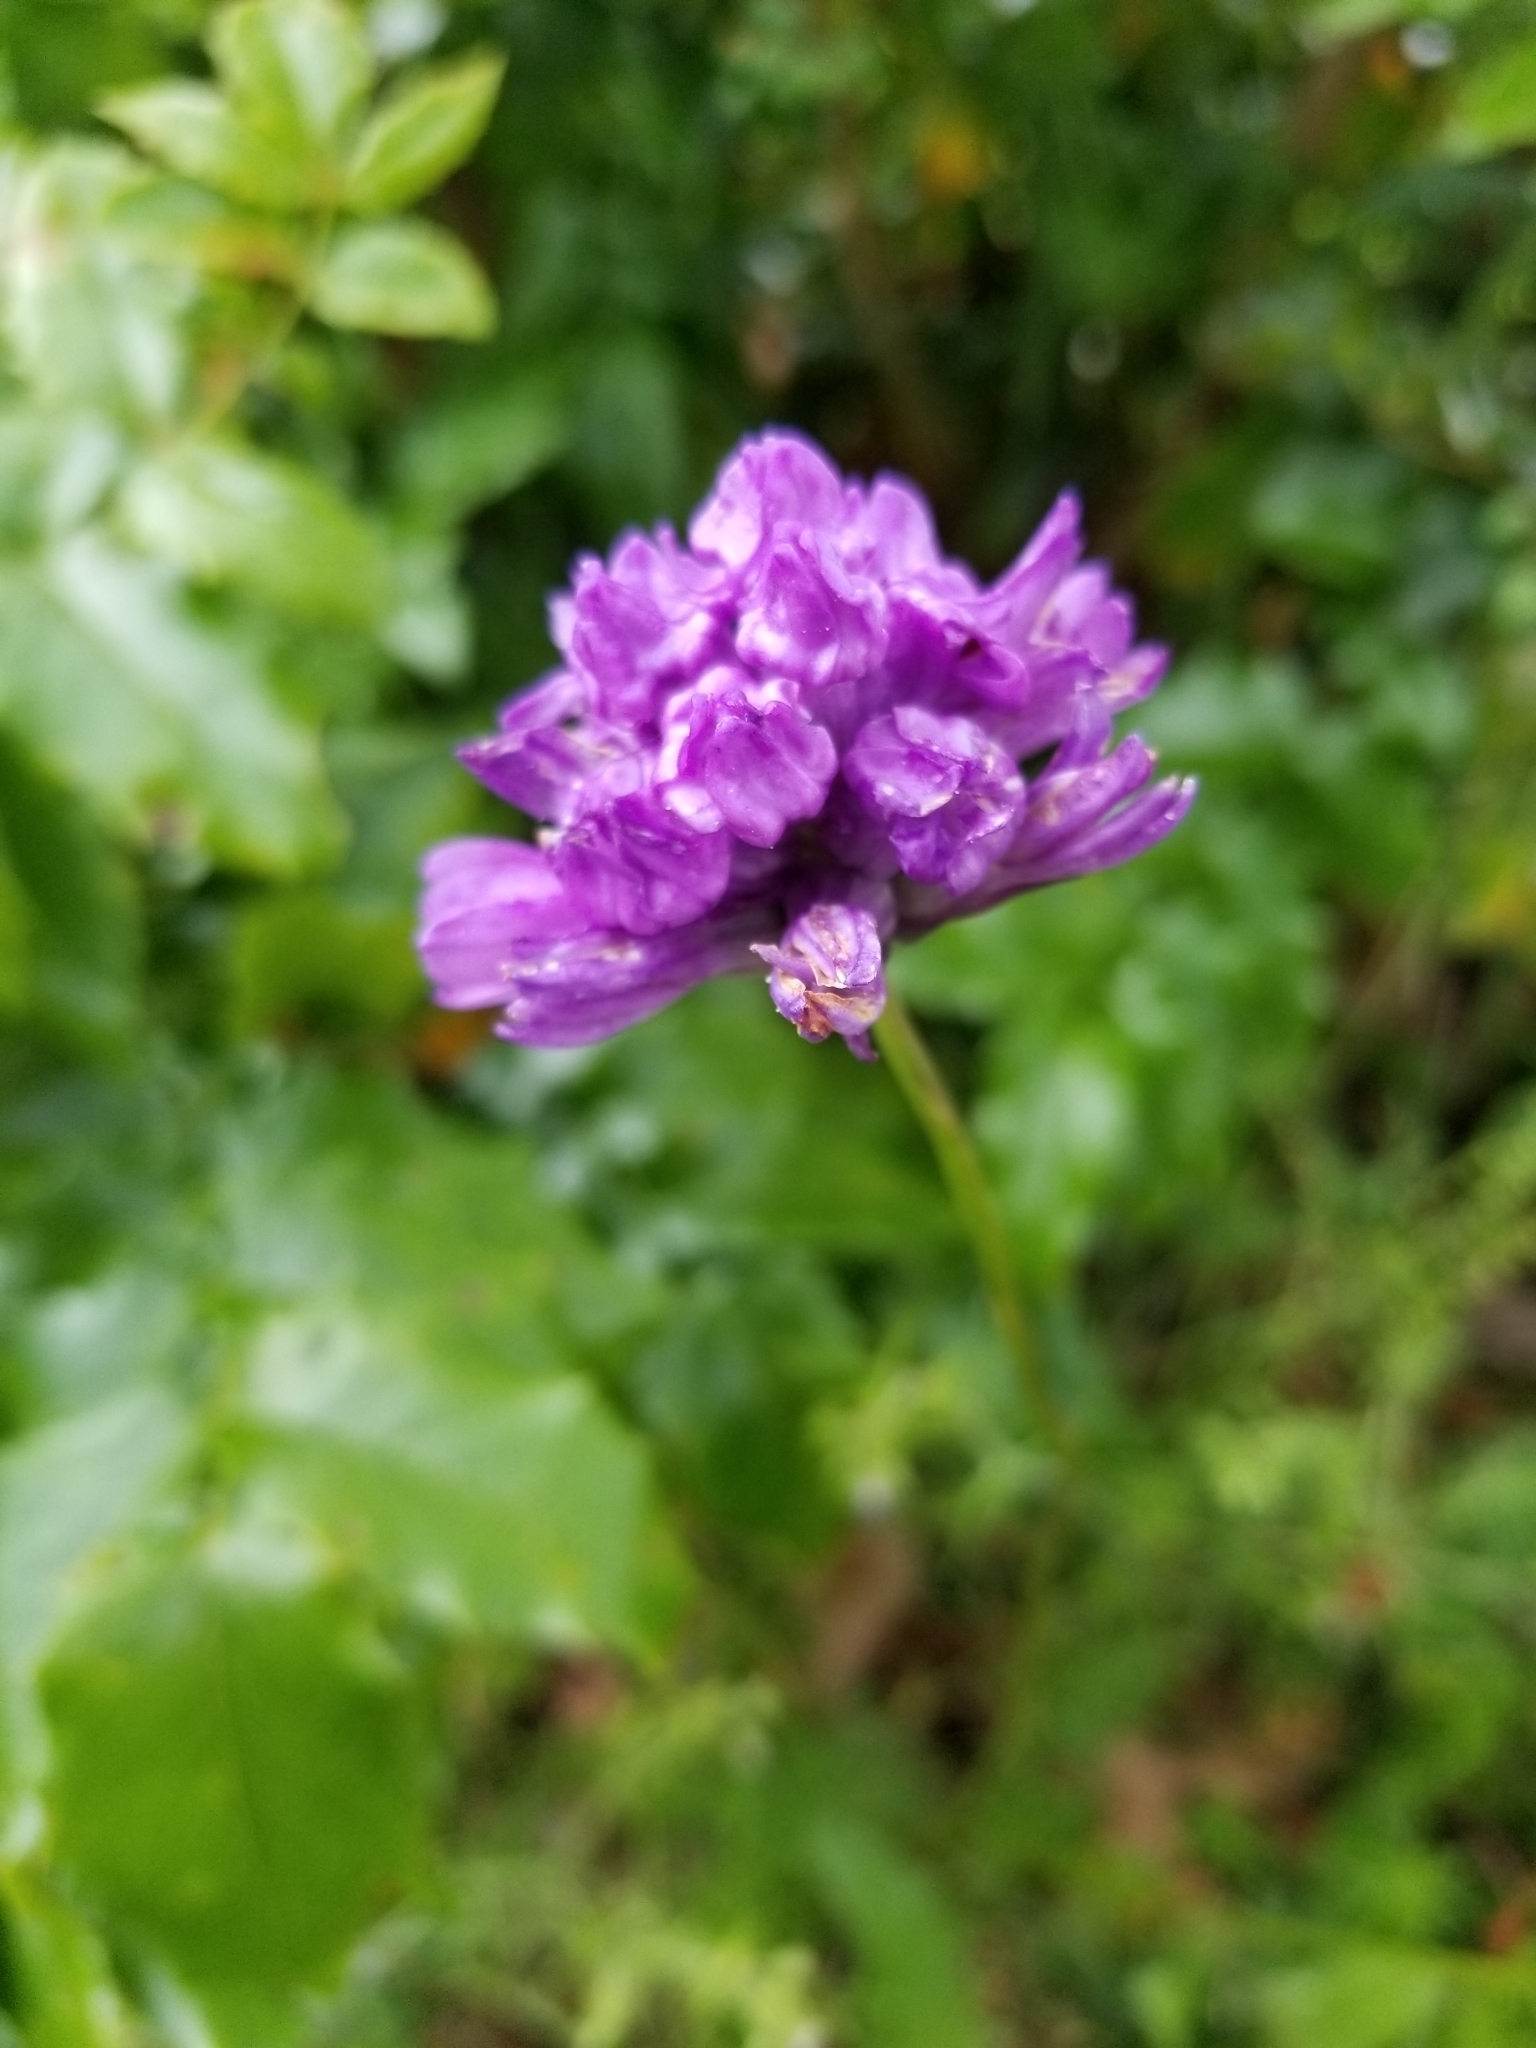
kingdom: Plantae
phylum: Tracheophyta
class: Liliopsida
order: Asparagales
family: Asparagaceae
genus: Dichelostemma
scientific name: Dichelostemma congestum
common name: Fork-tooth ookow
